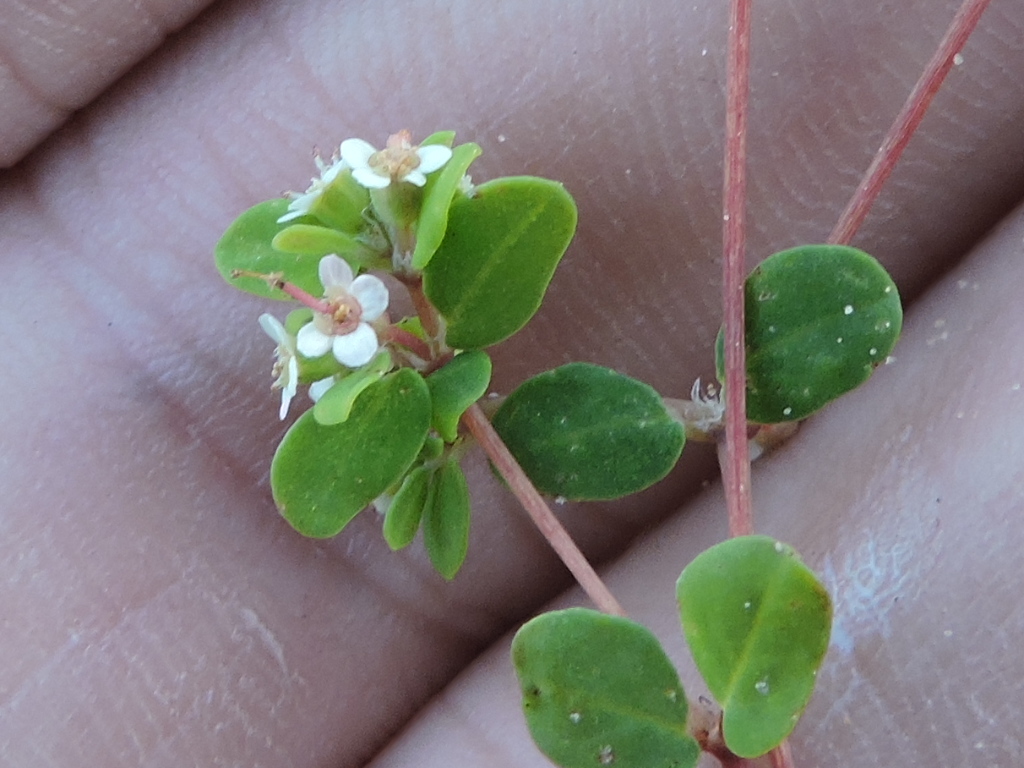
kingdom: Plantae
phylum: Tracheophyta
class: Magnoliopsida
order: Malpighiales
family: Euphorbiaceae
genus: Euphorbia
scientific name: Euphorbia cordifolia
